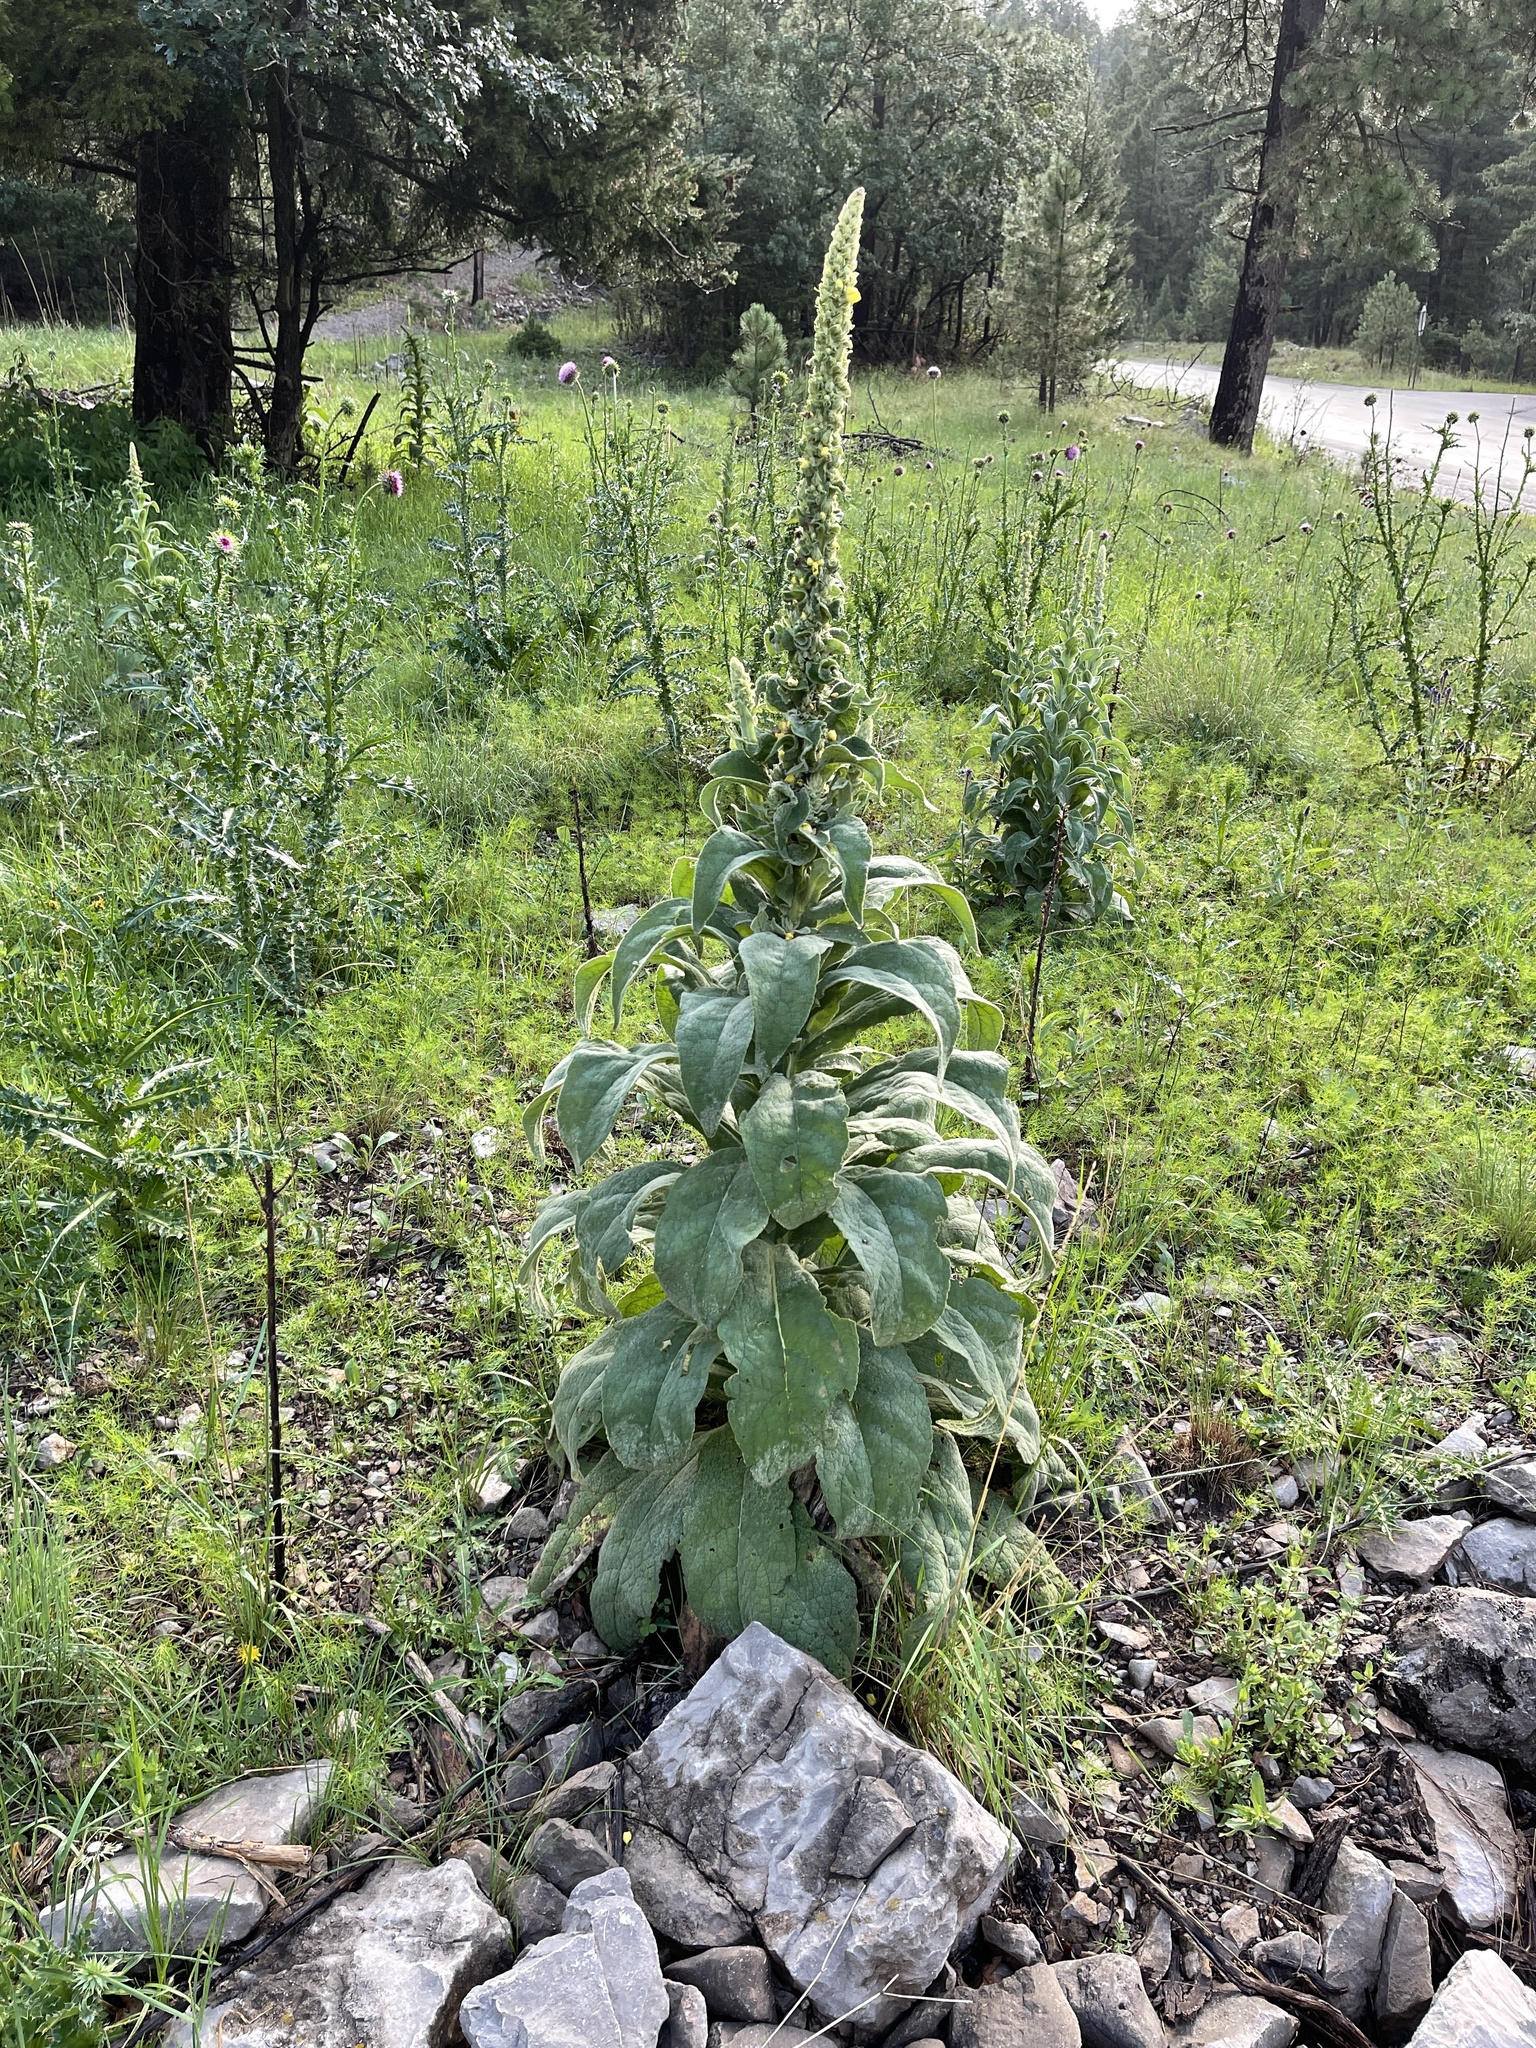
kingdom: Plantae
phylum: Tracheophyta
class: Magnoliopsida
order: Lamiales
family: Scrophulariaceae
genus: Verbascum
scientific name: Verbascum thapsus
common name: Common mullein
